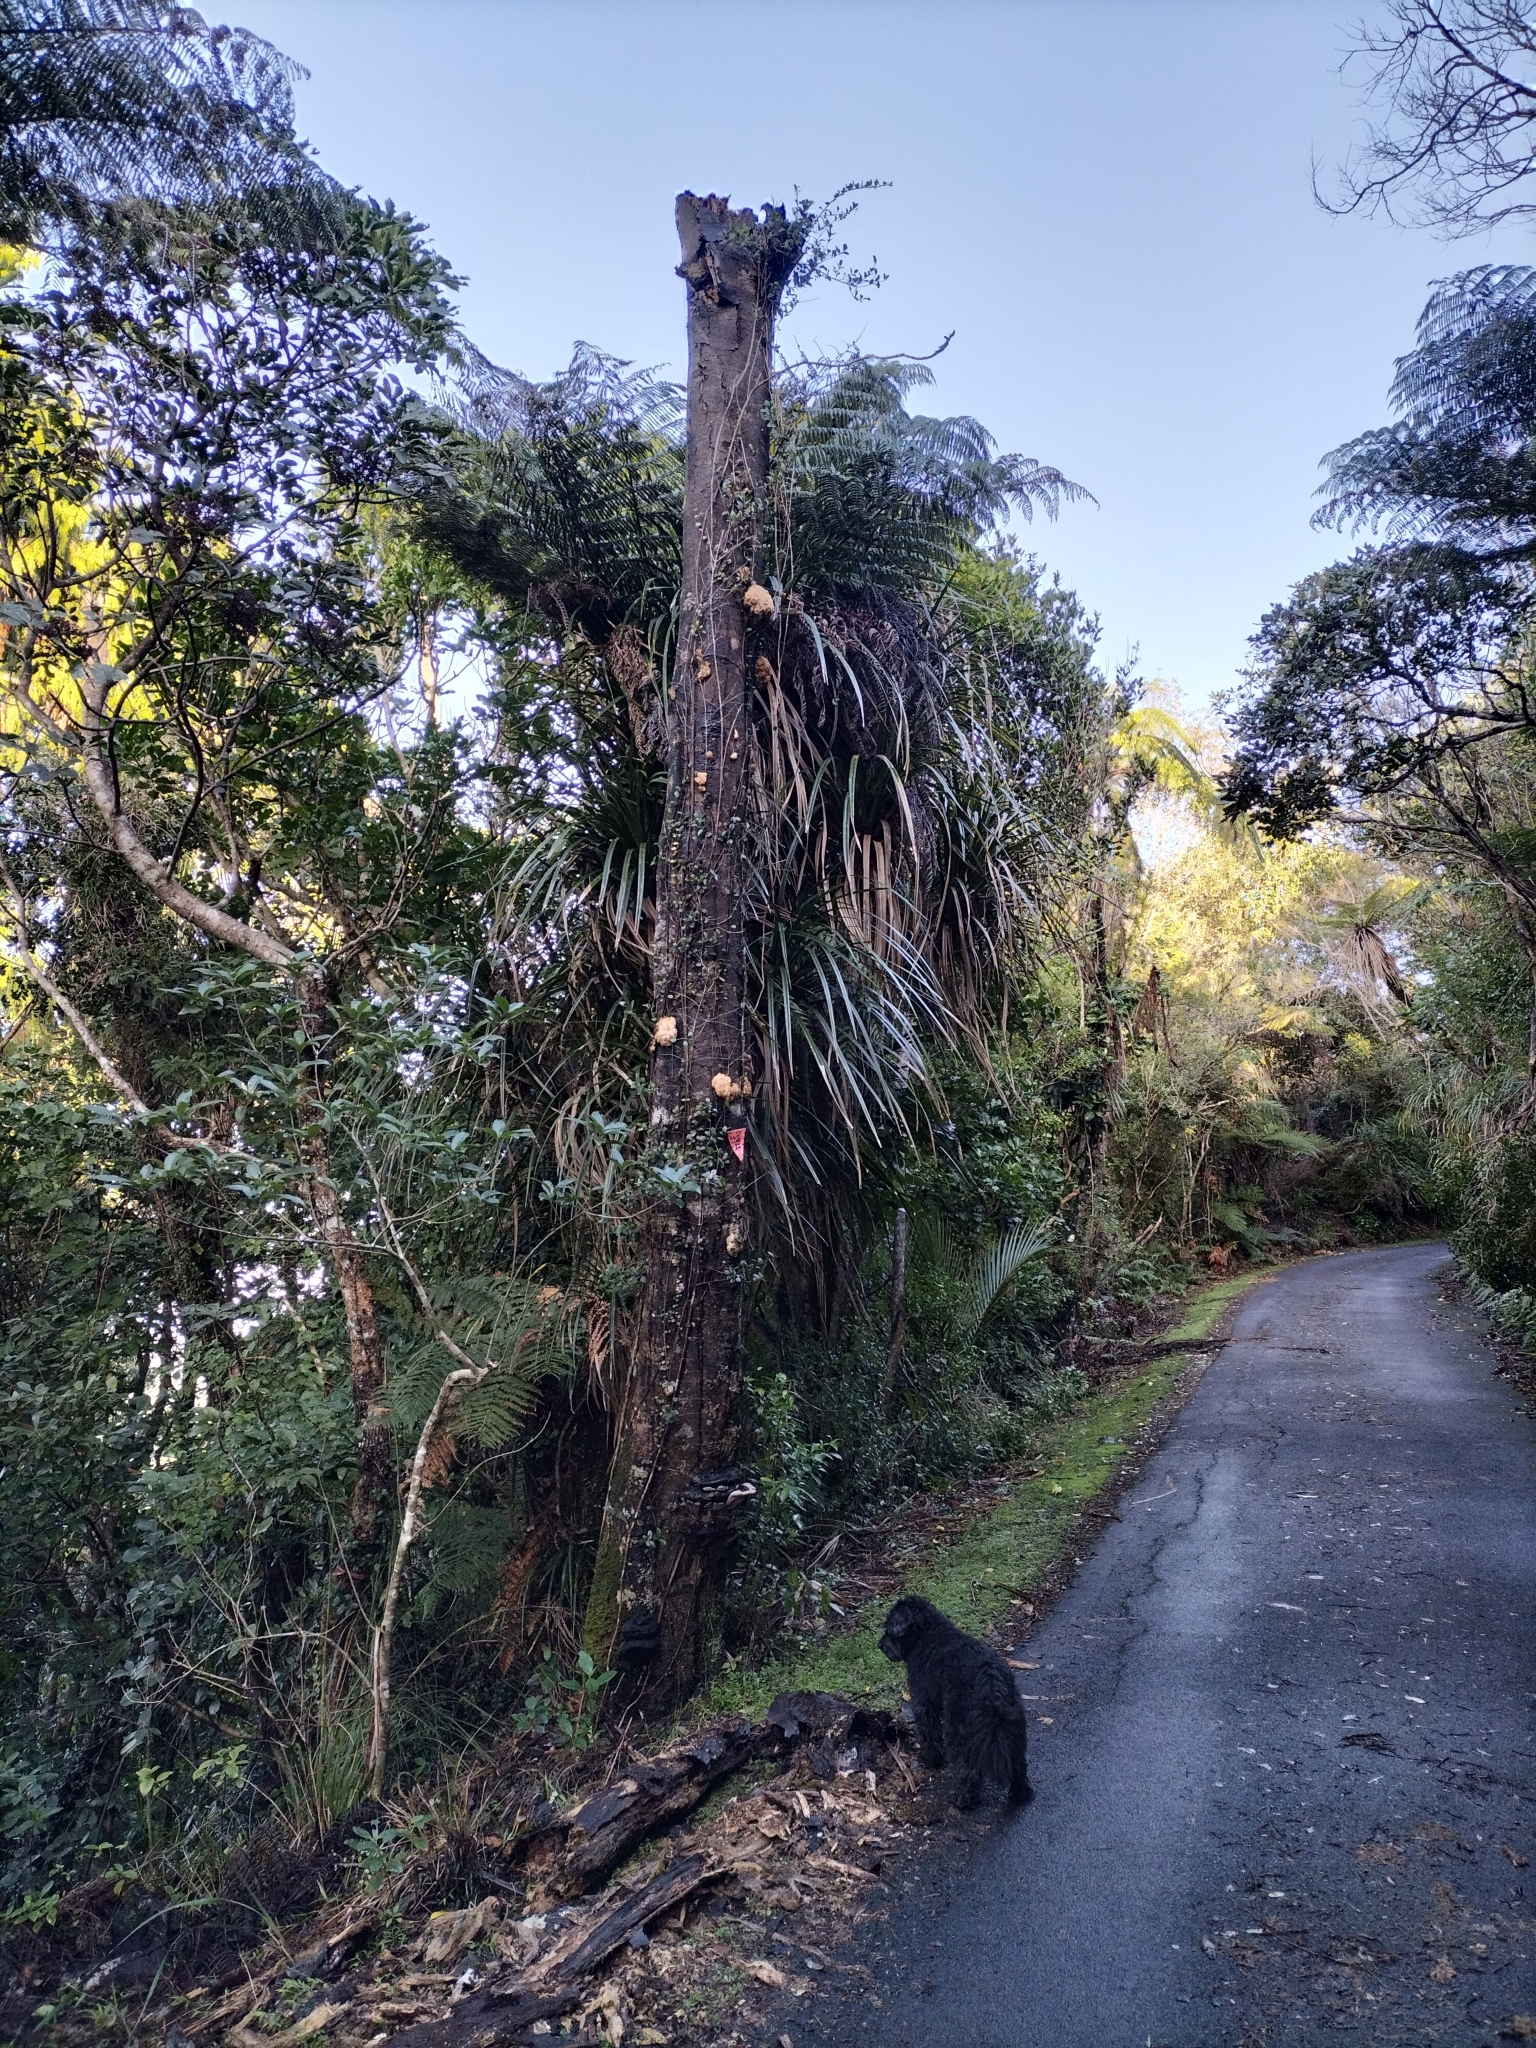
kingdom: Fungi
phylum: Basidiomycota
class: Agaricomycetes
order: Russulales
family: Hericiaceae
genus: Hericium
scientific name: Hericium novae-zealandiae
